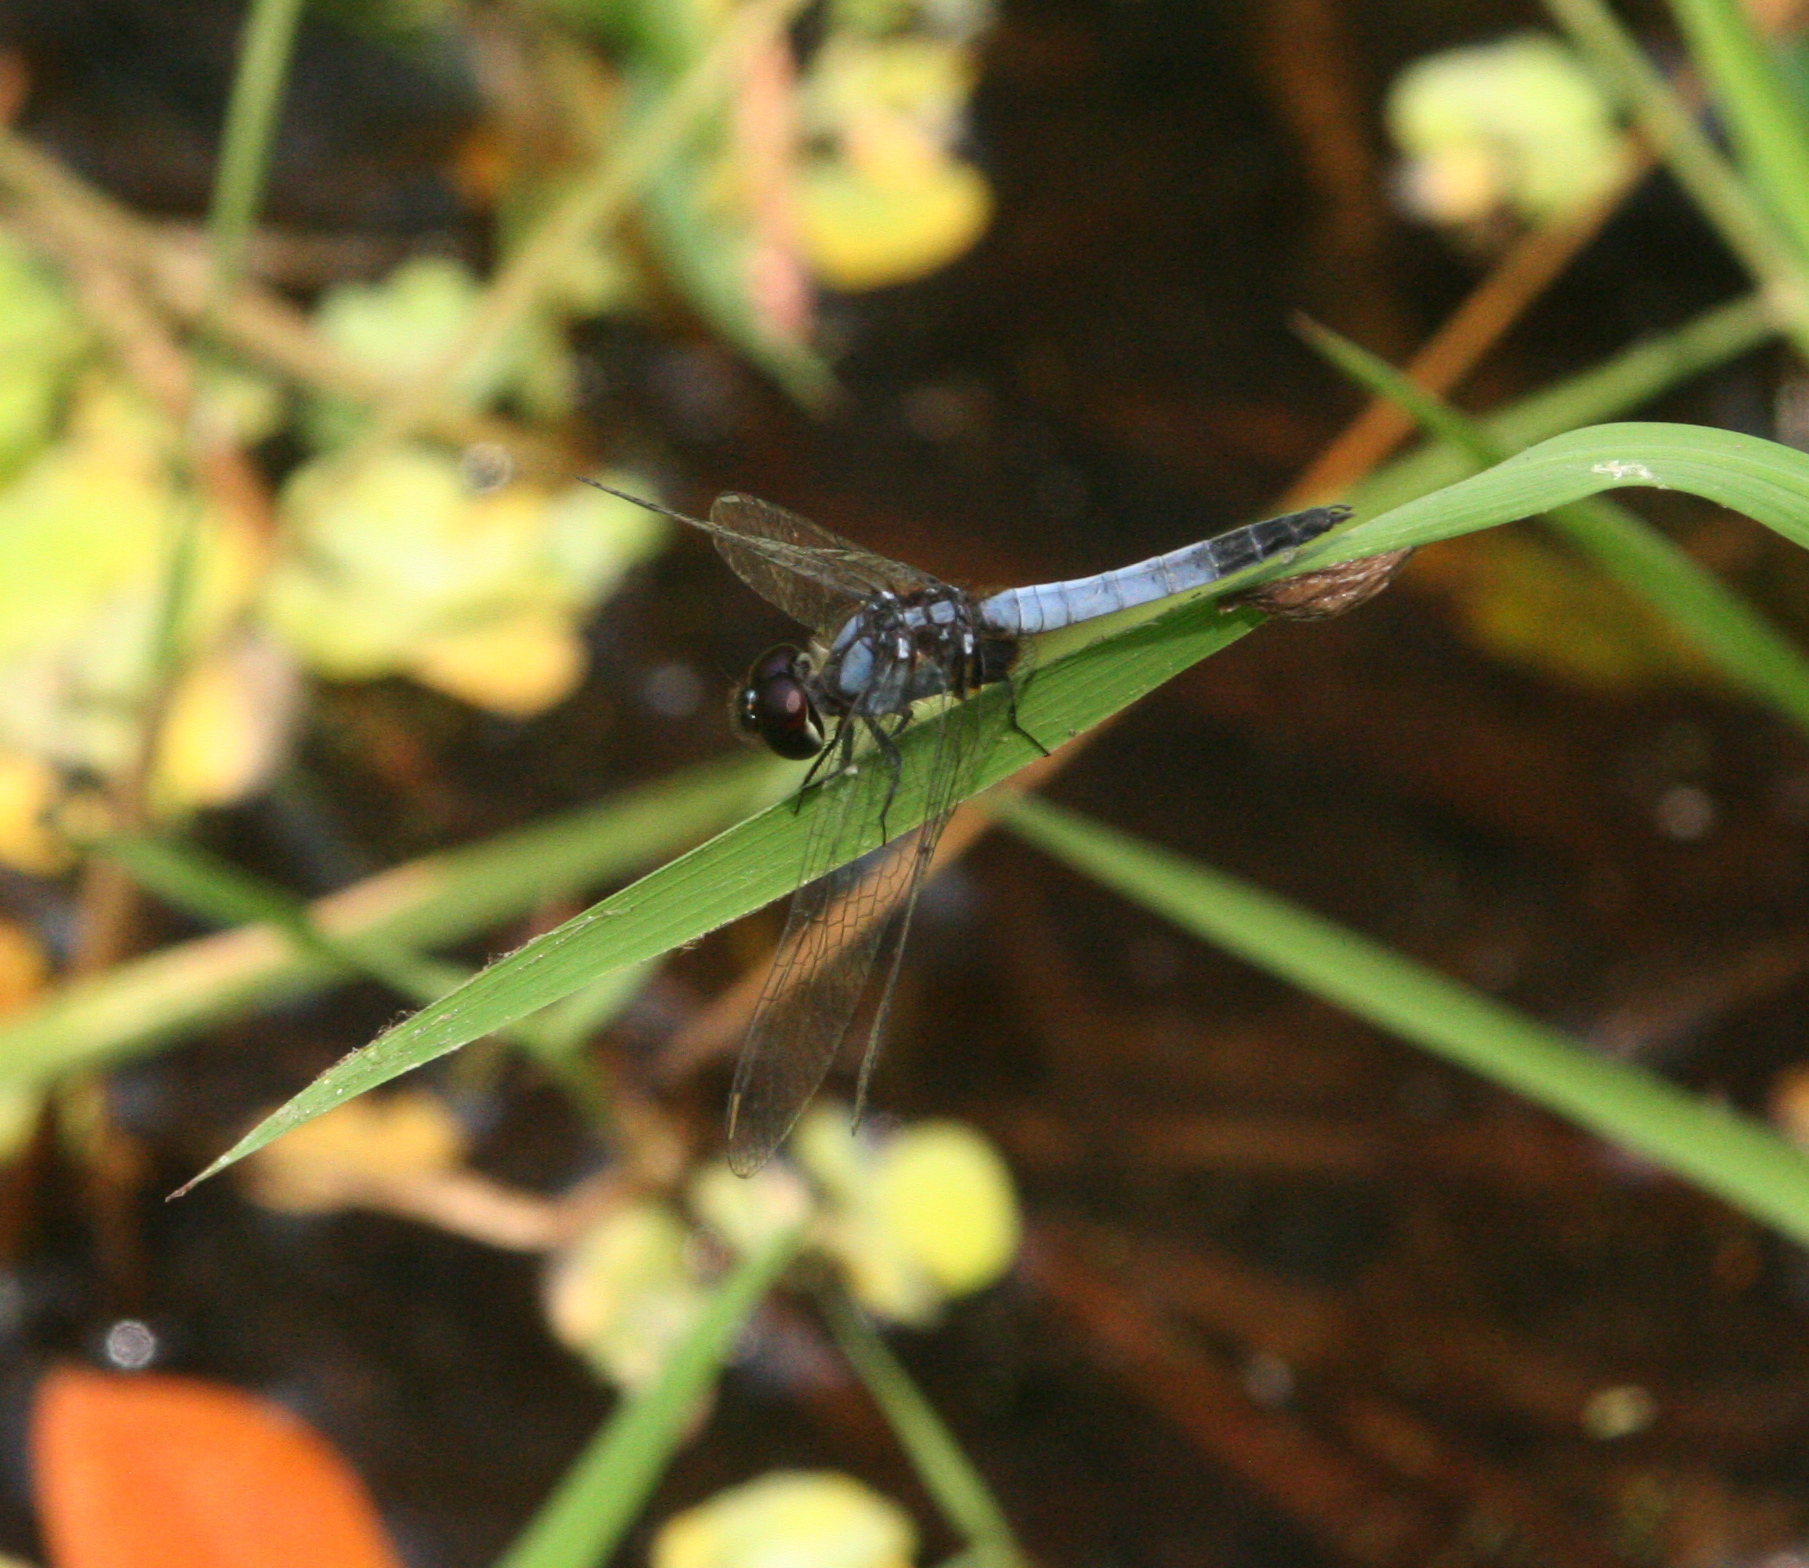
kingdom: Animalia
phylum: Arthropoda
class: Insecta
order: Odonata
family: Libellulidae
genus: Aethriamanta
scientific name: Aethriamanta aethra
